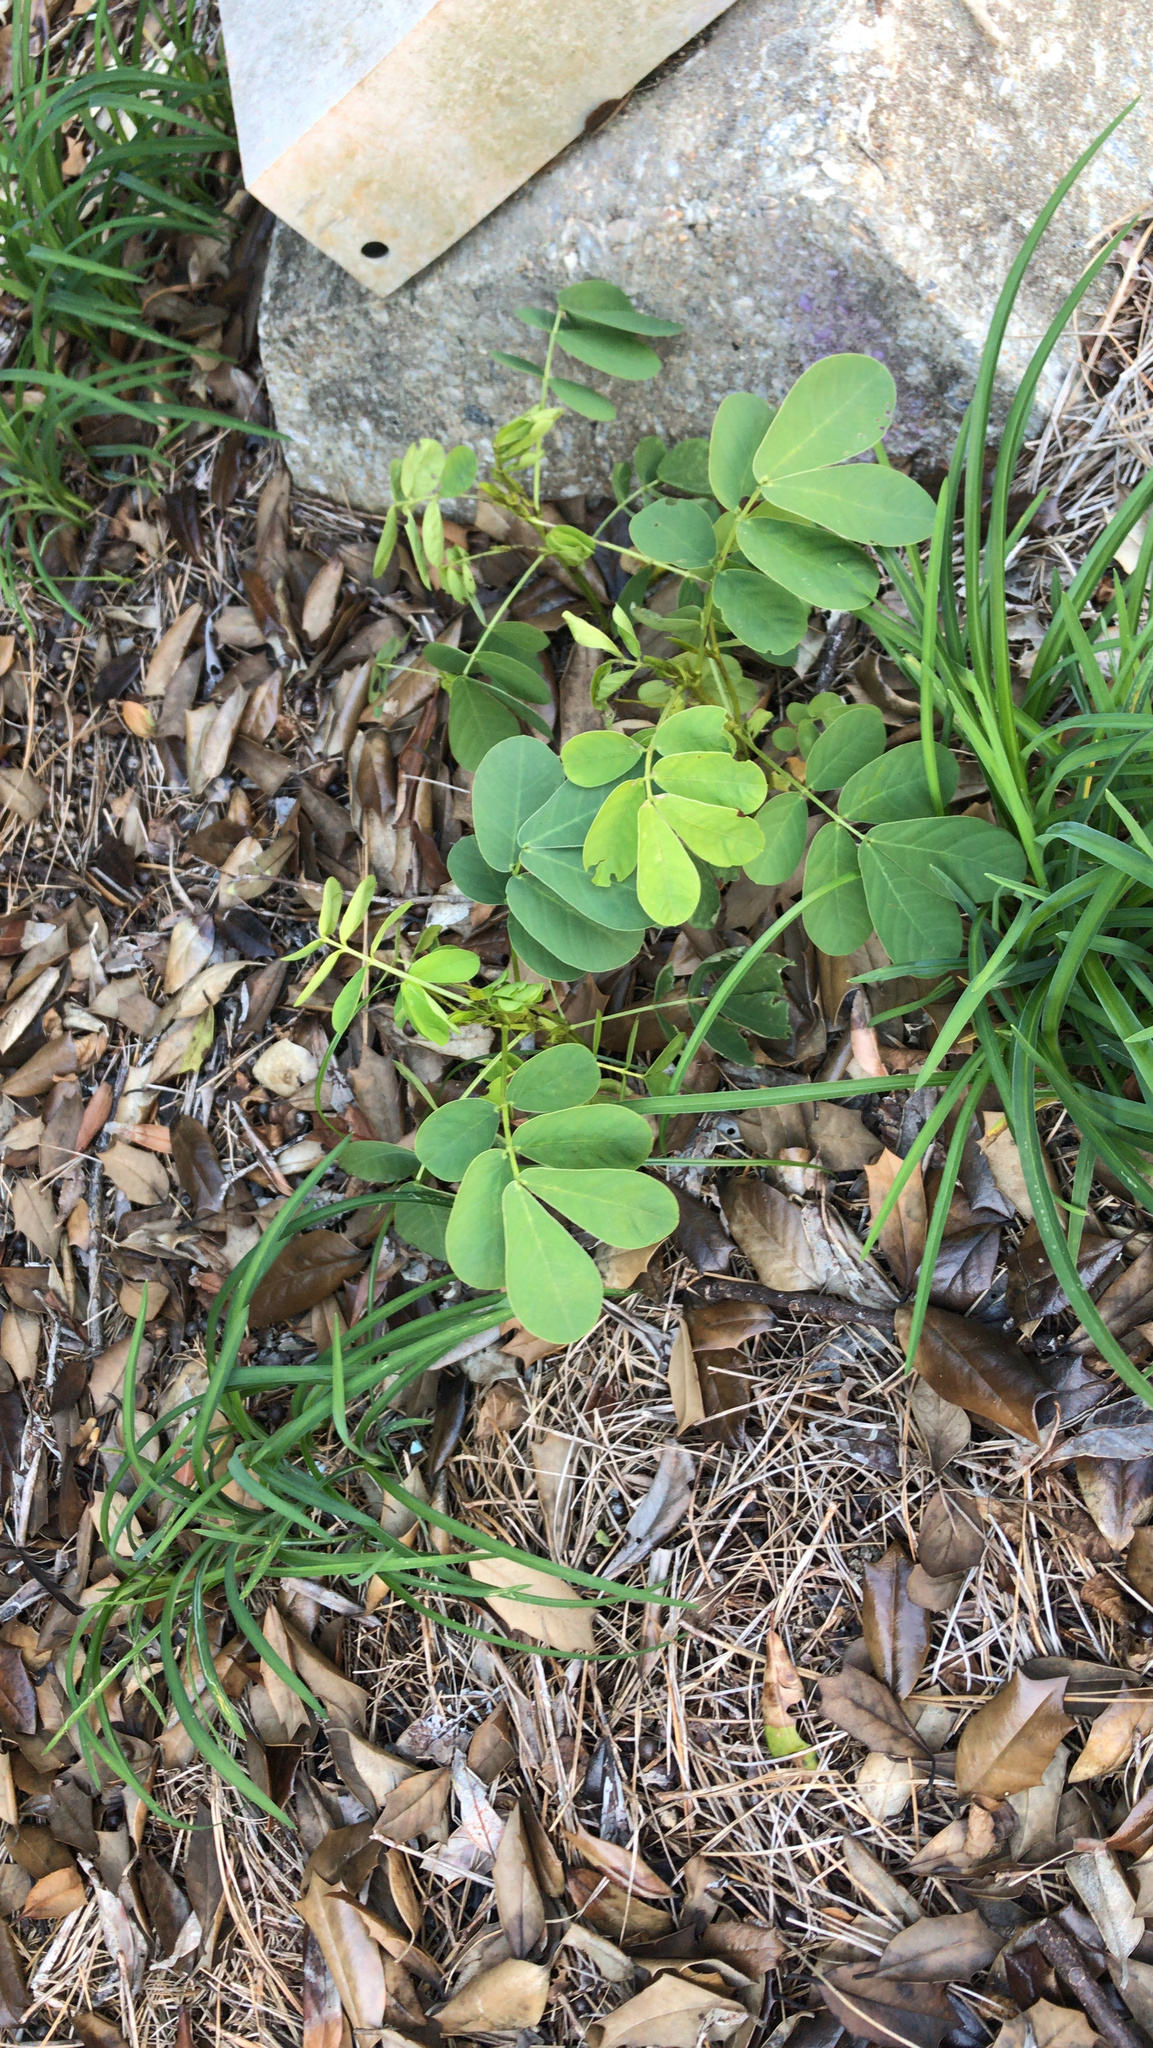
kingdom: Plantae
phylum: Tracheophyta
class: Magnoliopsida
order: Fabales
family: Fabaceae
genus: Senna
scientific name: Senna obtusifolia
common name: Java-bean
